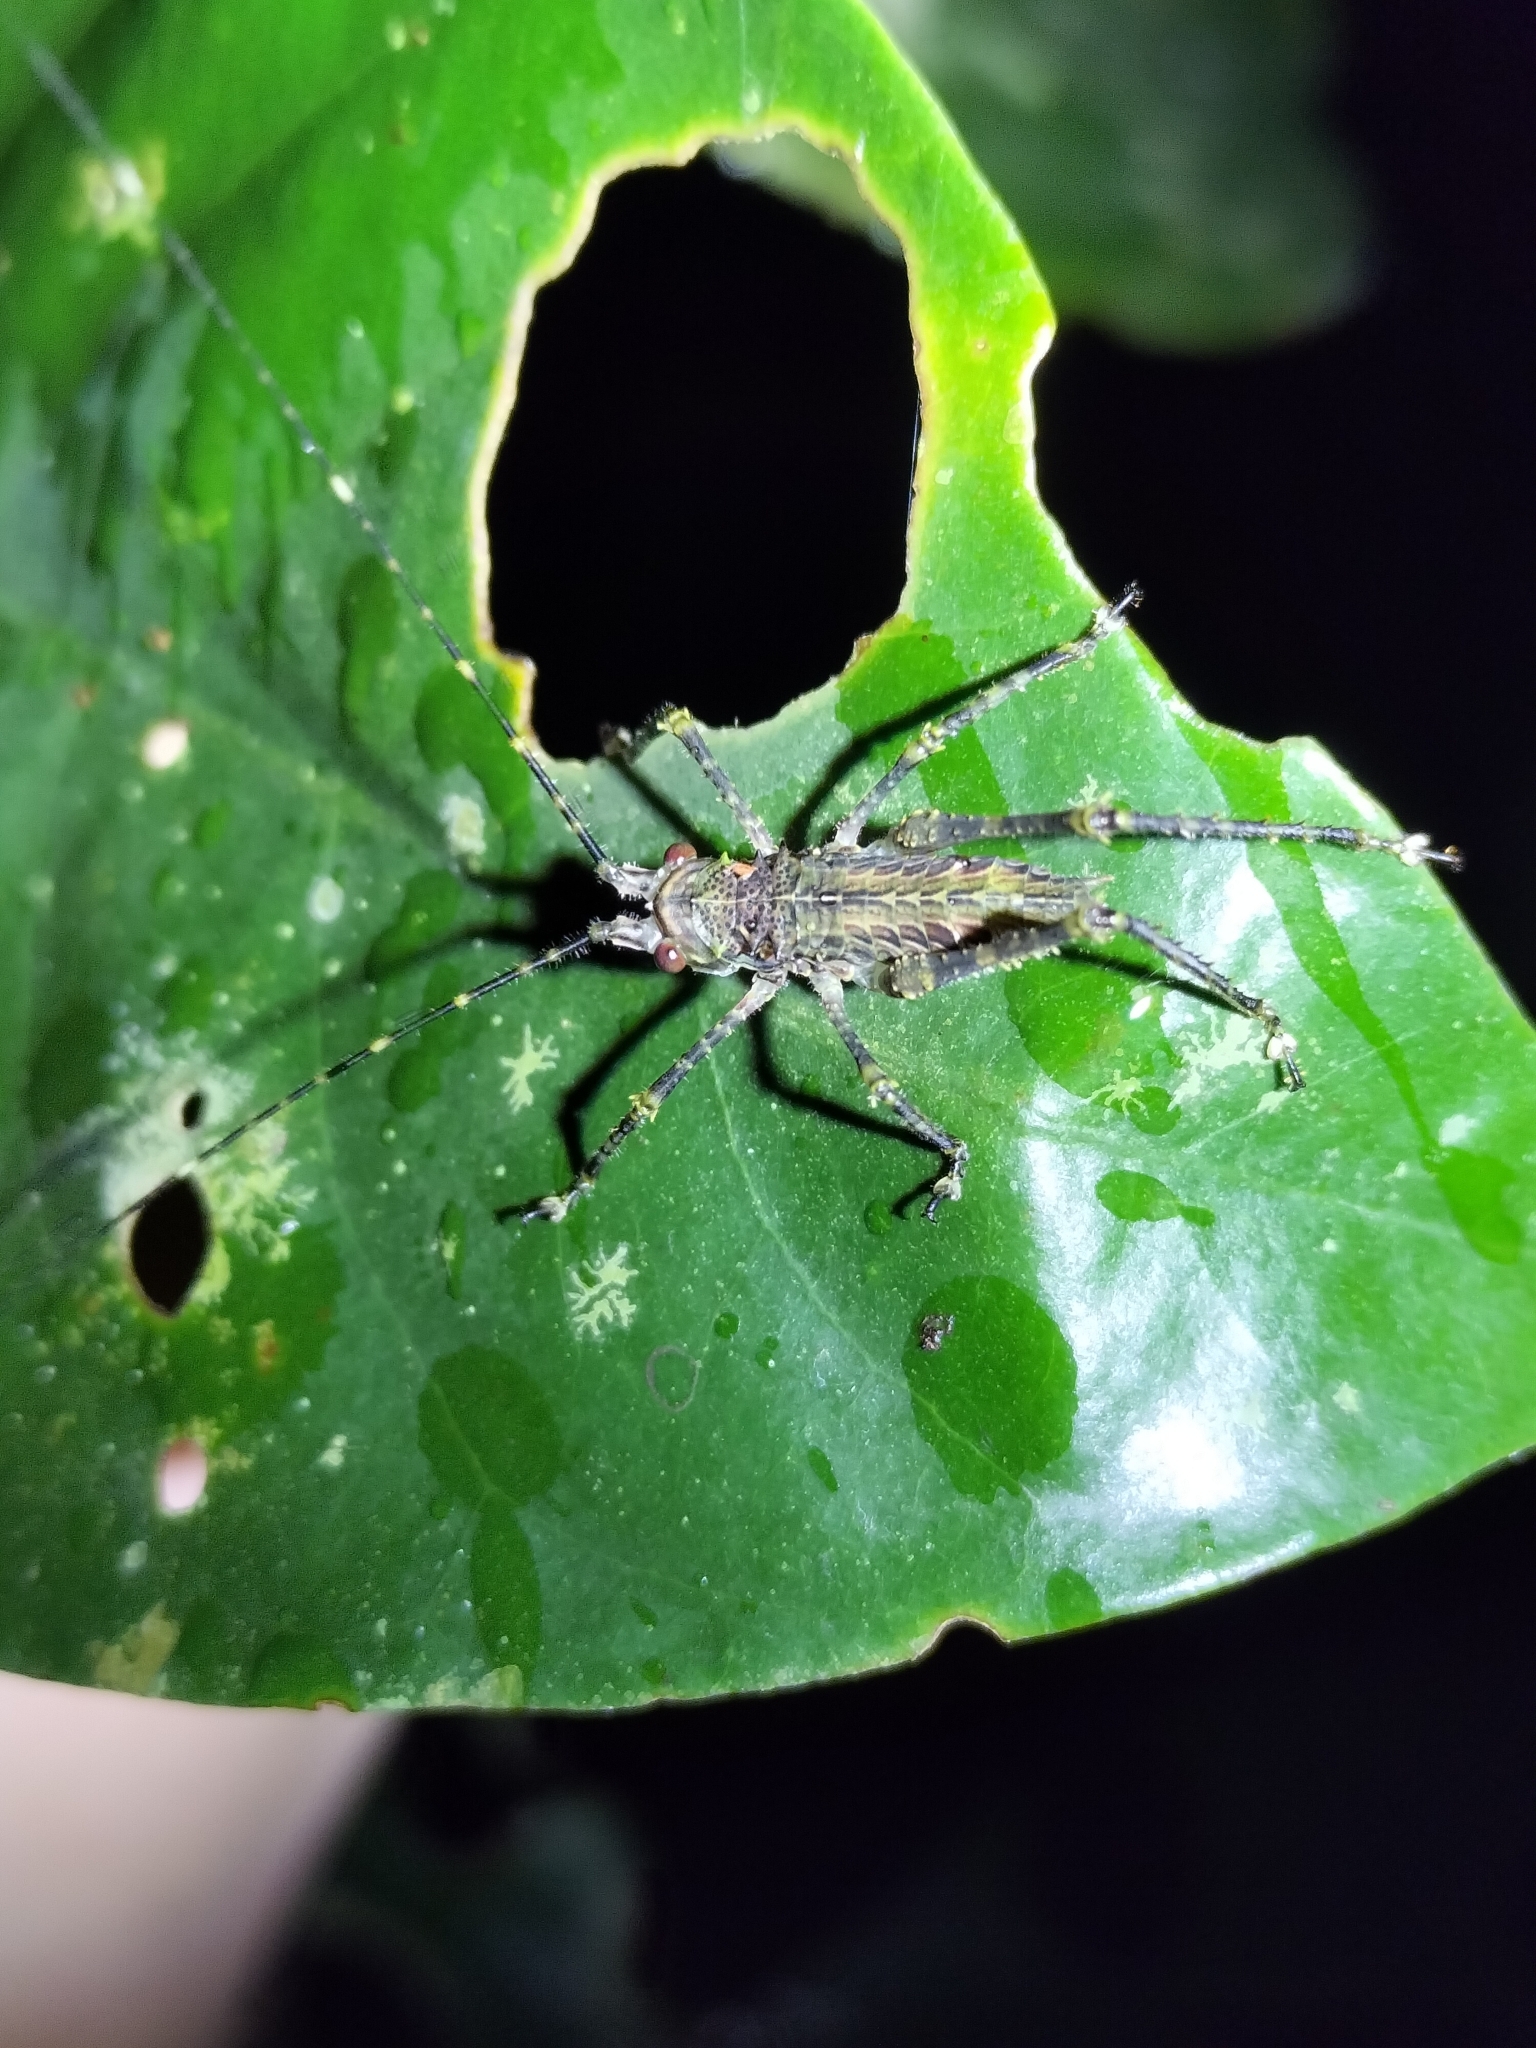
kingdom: Animalia
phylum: Arthropoda
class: Insecta
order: Orthoptera
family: Tettigoniidae
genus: Phricta
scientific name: Phricta spinosa
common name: Giant spiny forest katydid
